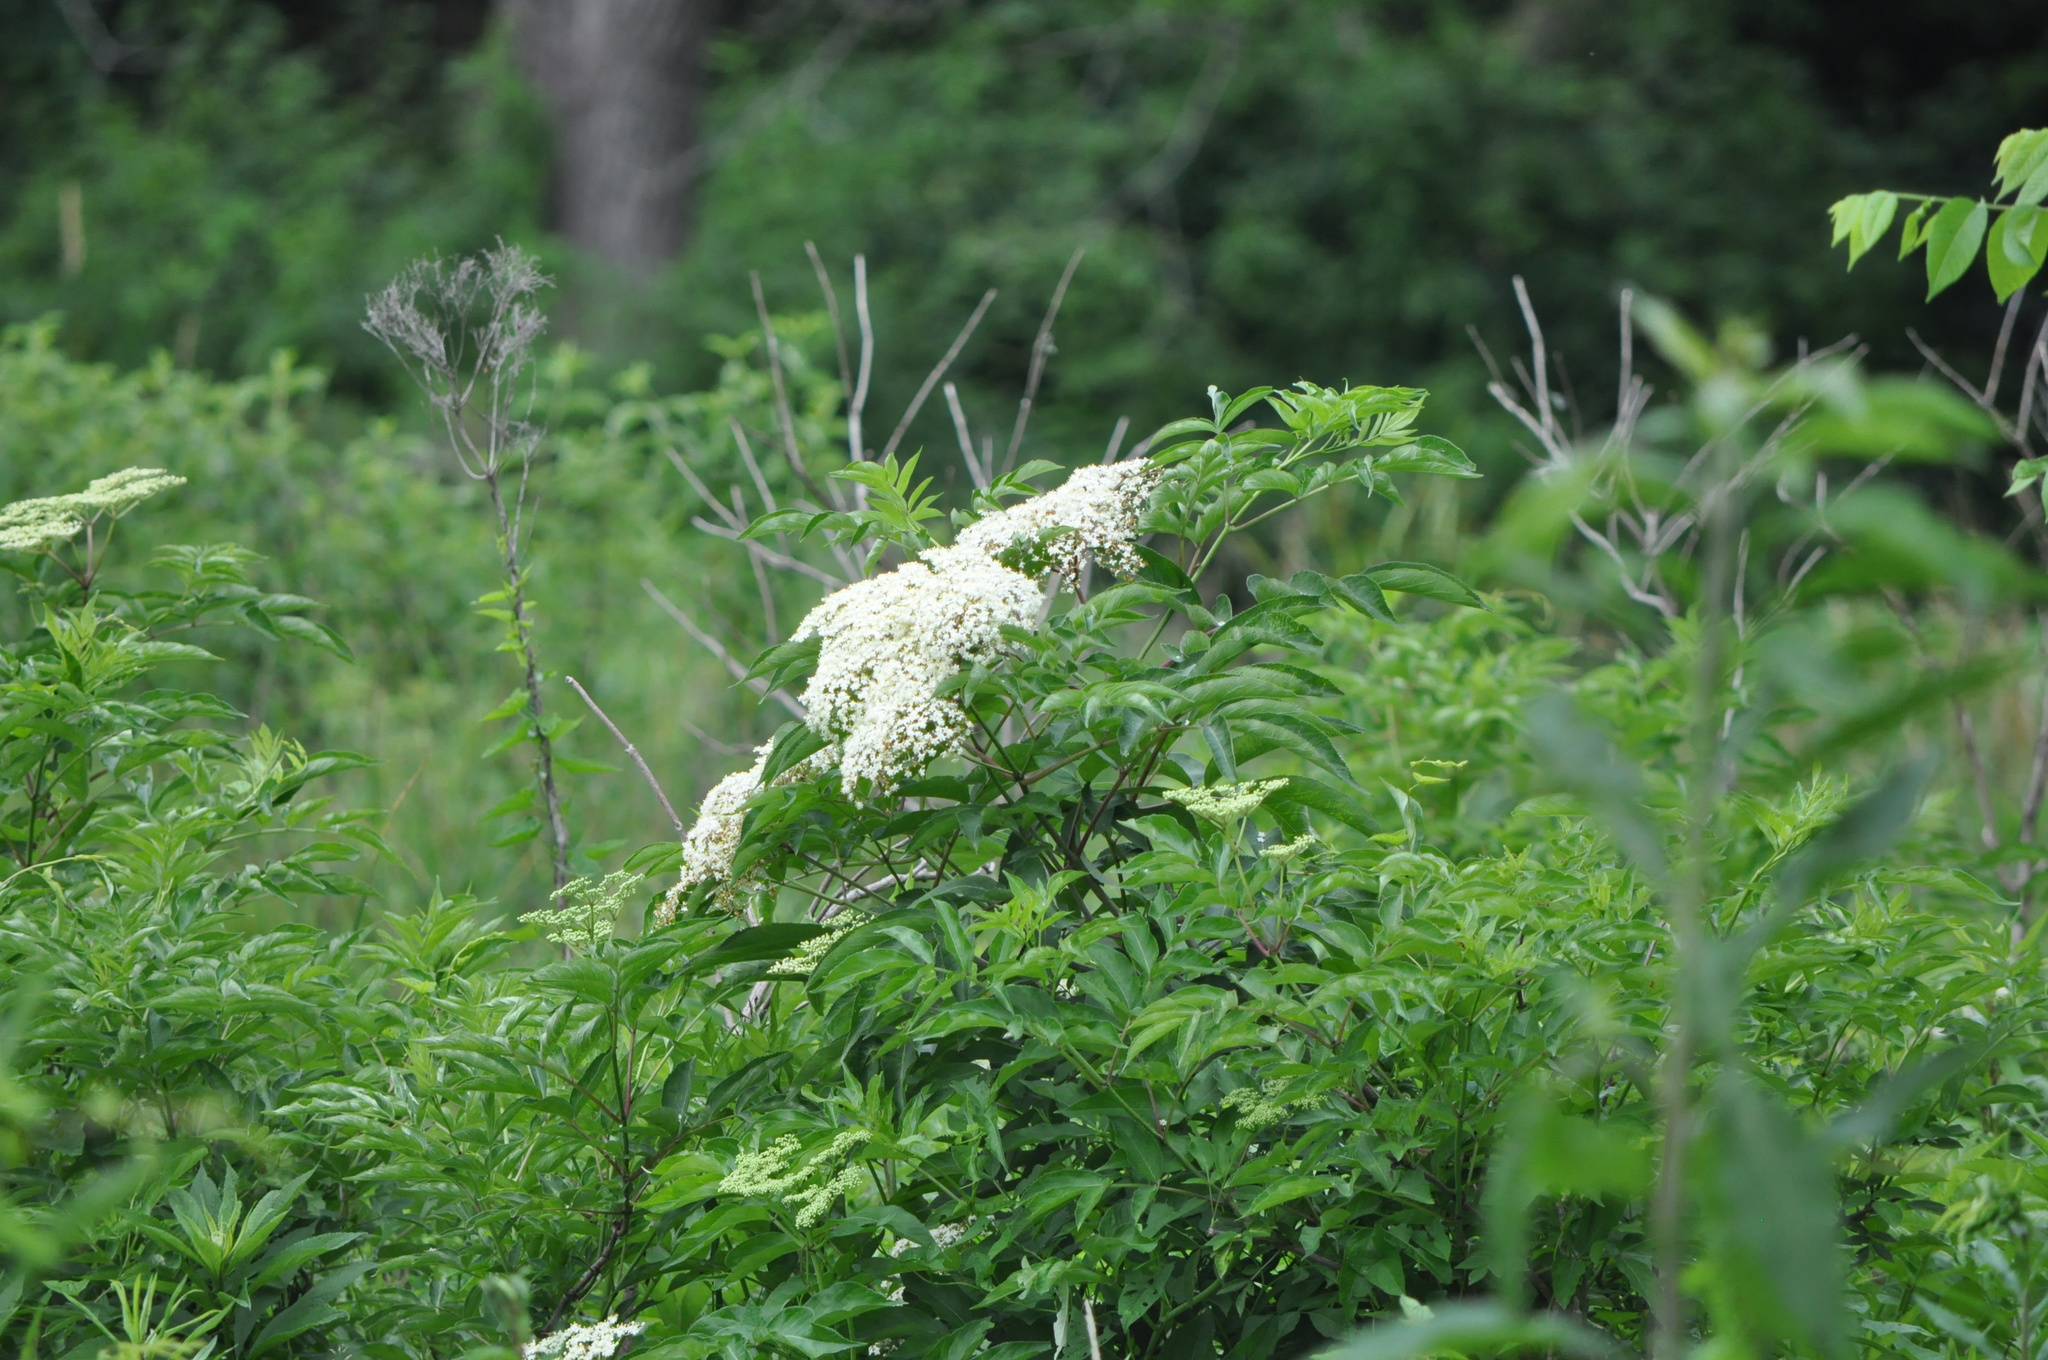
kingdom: Plantae
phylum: Tracheophyta
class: Magnoliopsida
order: Dipsacales
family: Viburnaceae
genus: Sambucus
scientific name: Sambucus canadensis
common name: American elder
